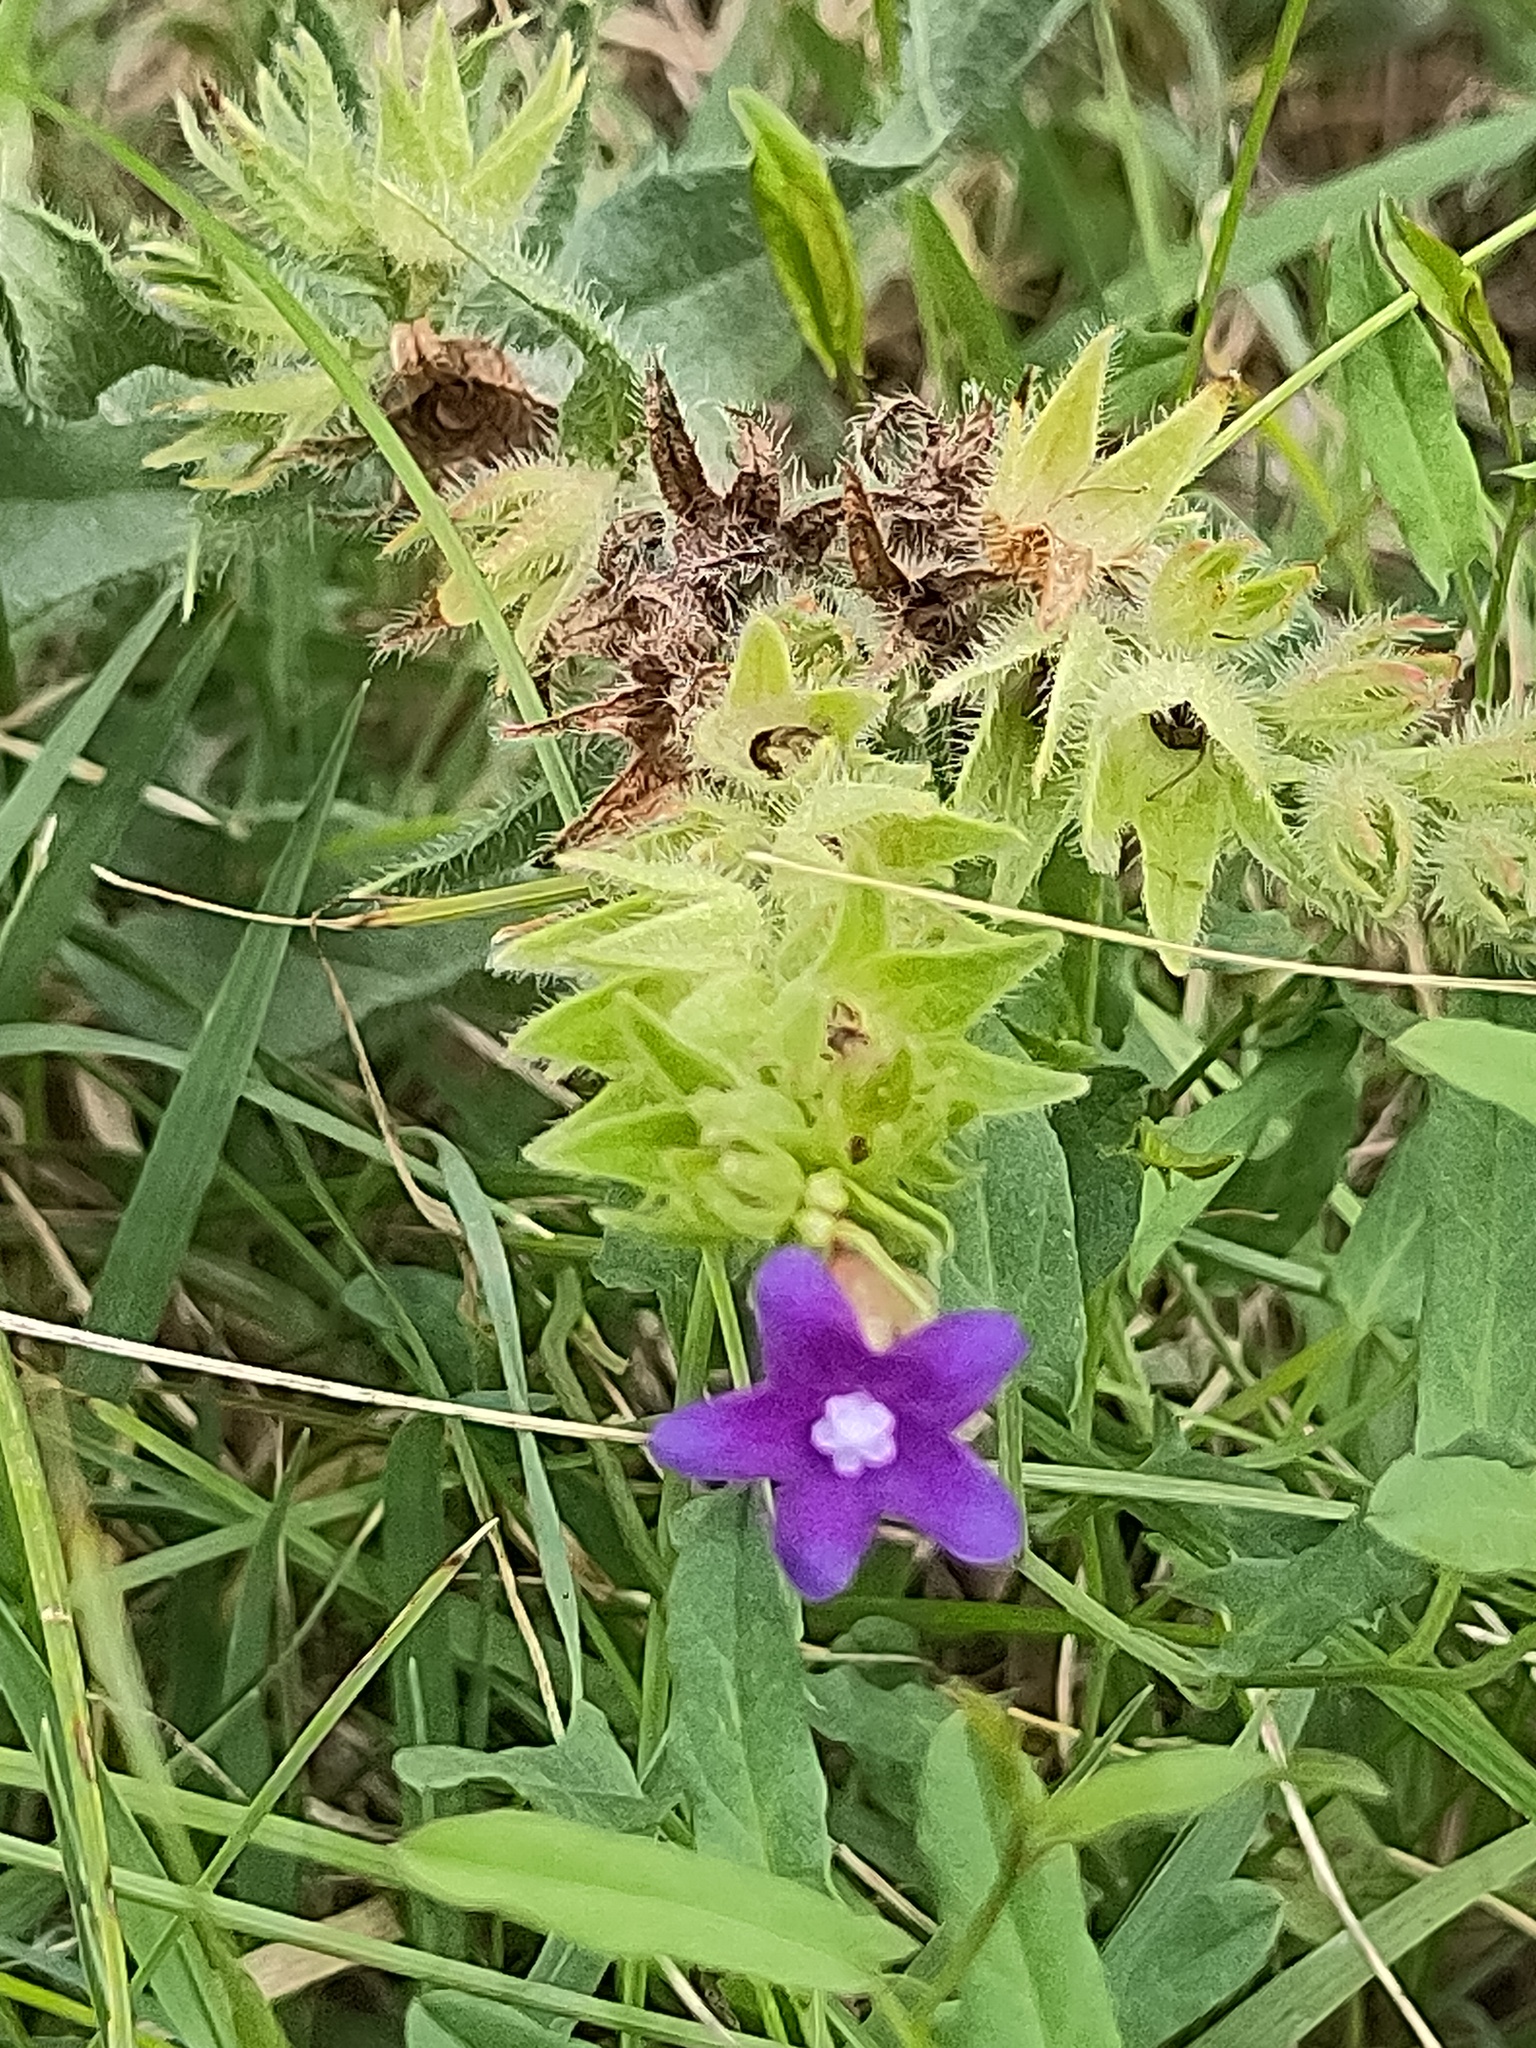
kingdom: Plantae
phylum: Tracheophyta
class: Magnoliopsida
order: Boraginales
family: Boraginaceae
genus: Anchusa
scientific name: Anchusa officinalis
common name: Alkanet
